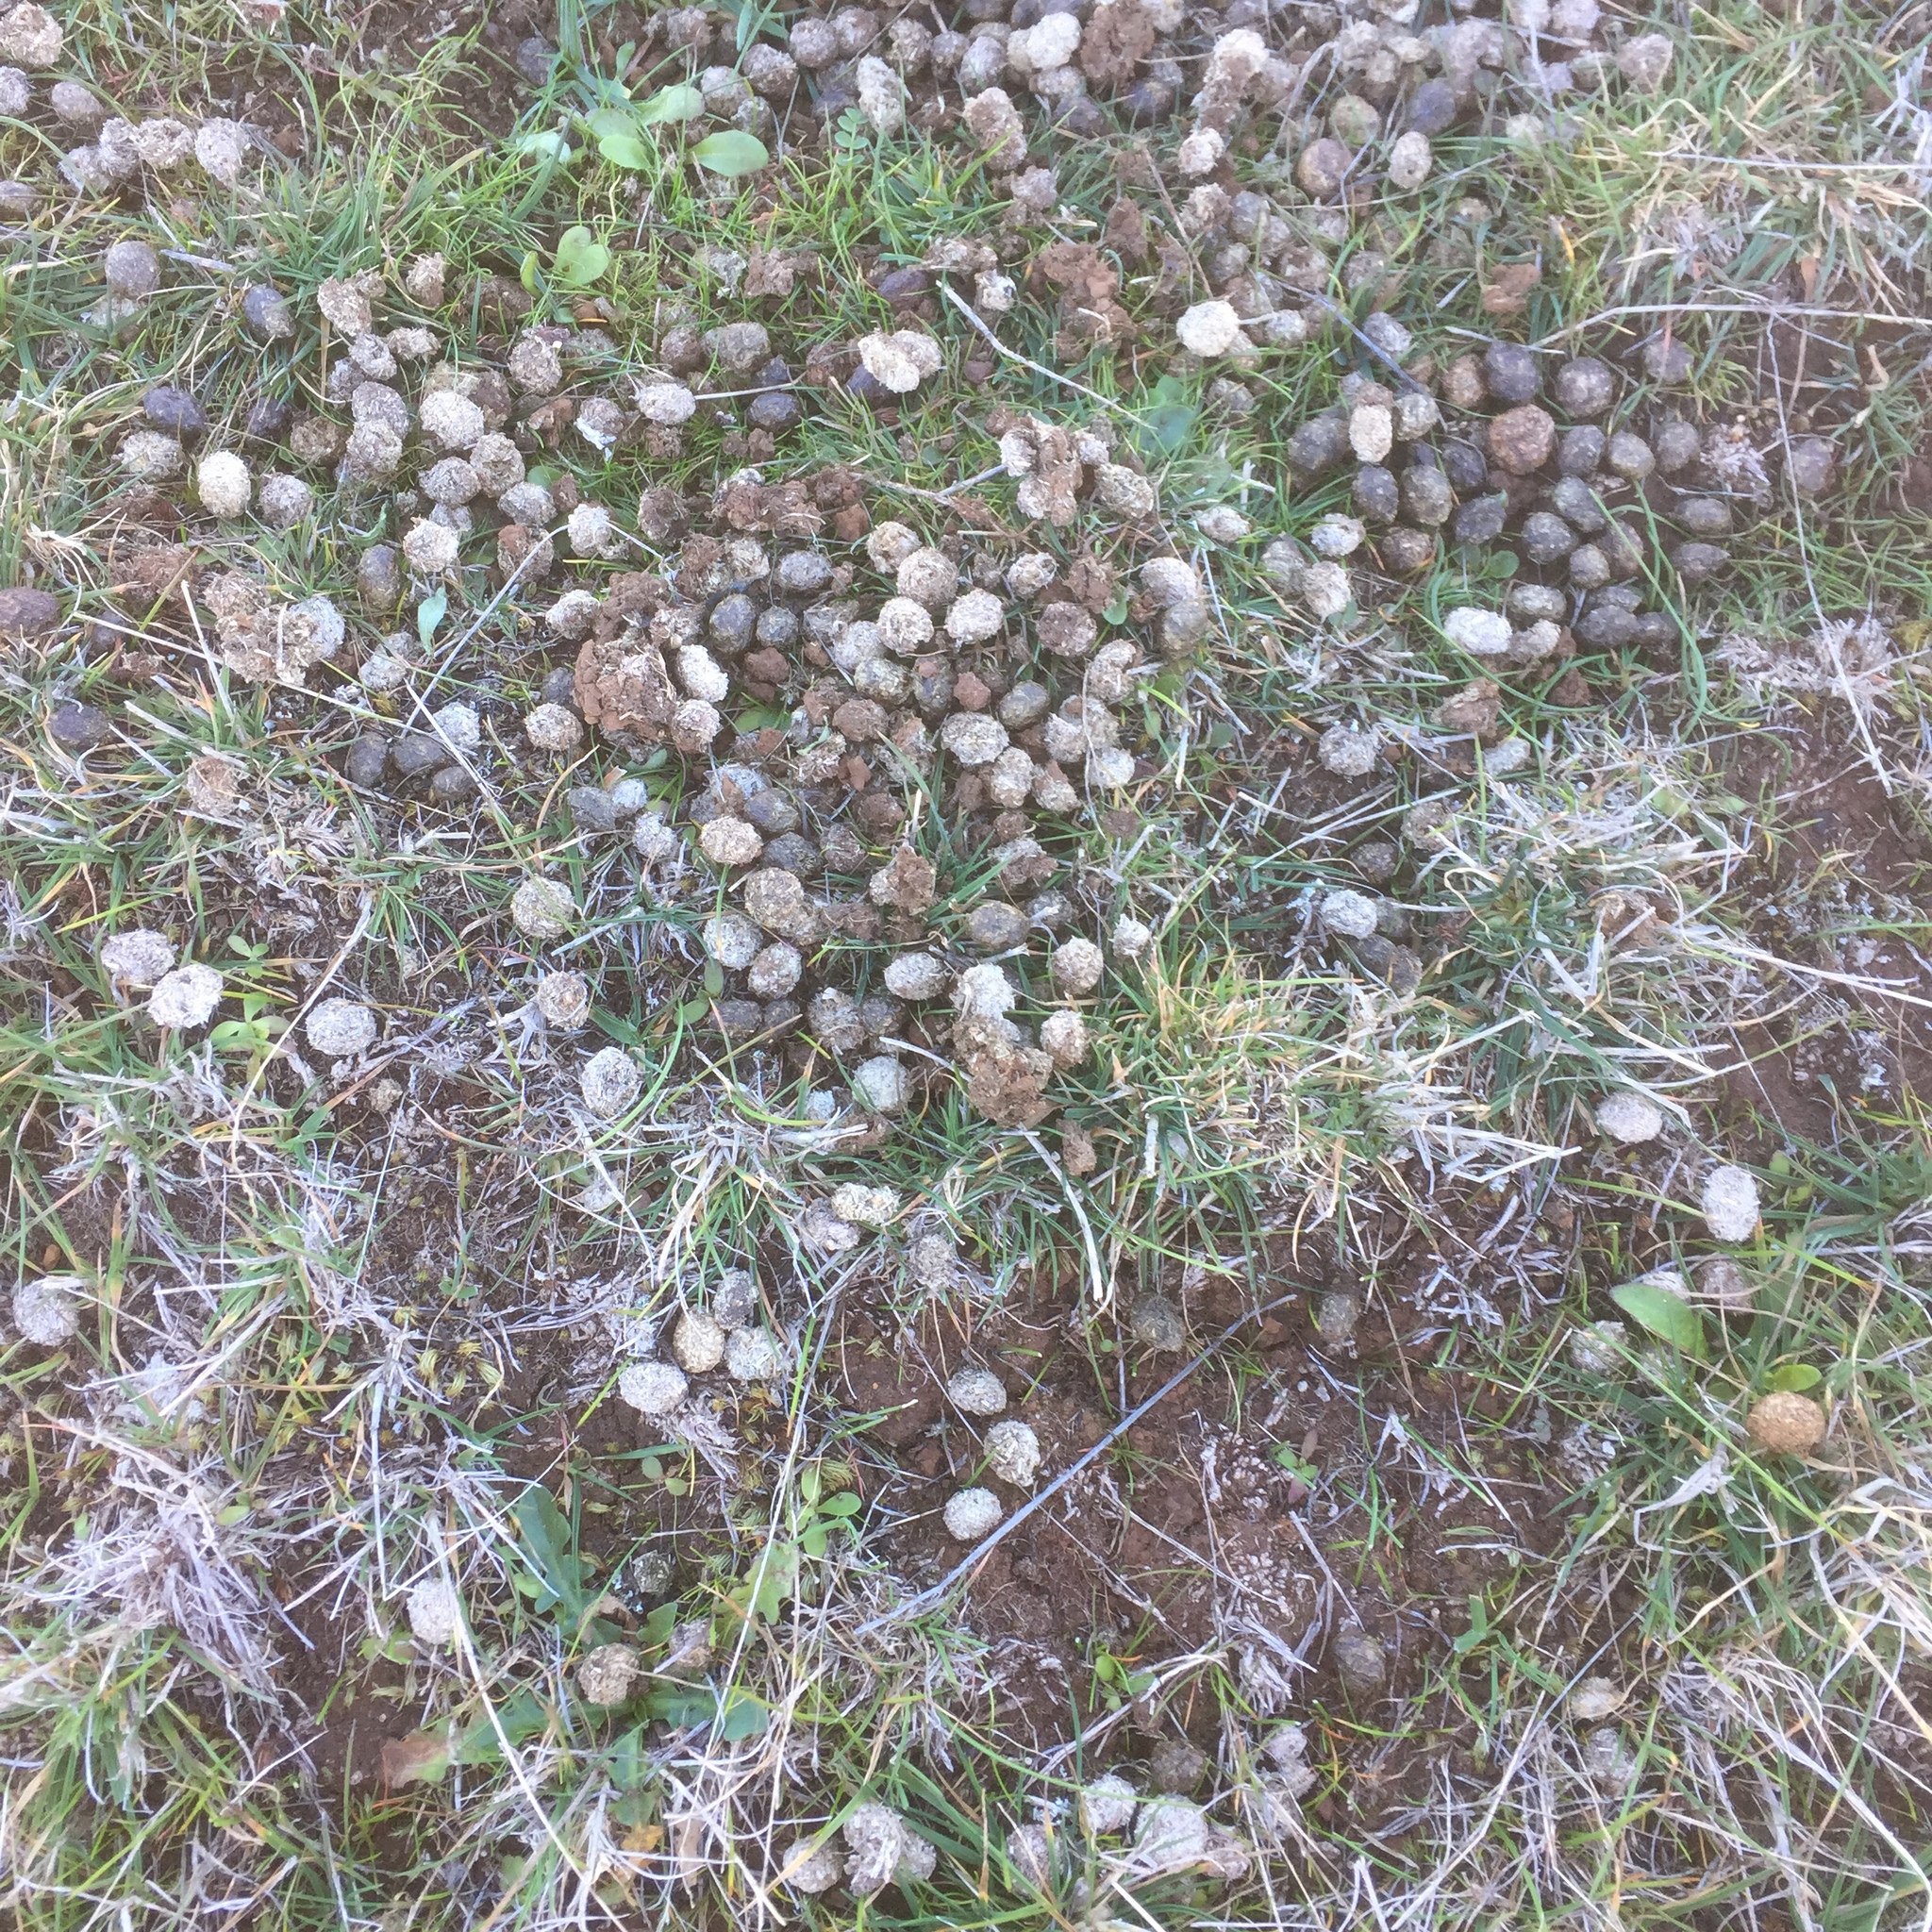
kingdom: Animalia
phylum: Chordata
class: Mammalia
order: Lagomorpha
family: Leporidae
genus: Oryctolagus
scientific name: Oryctolagus cuniculus
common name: European rabbit
